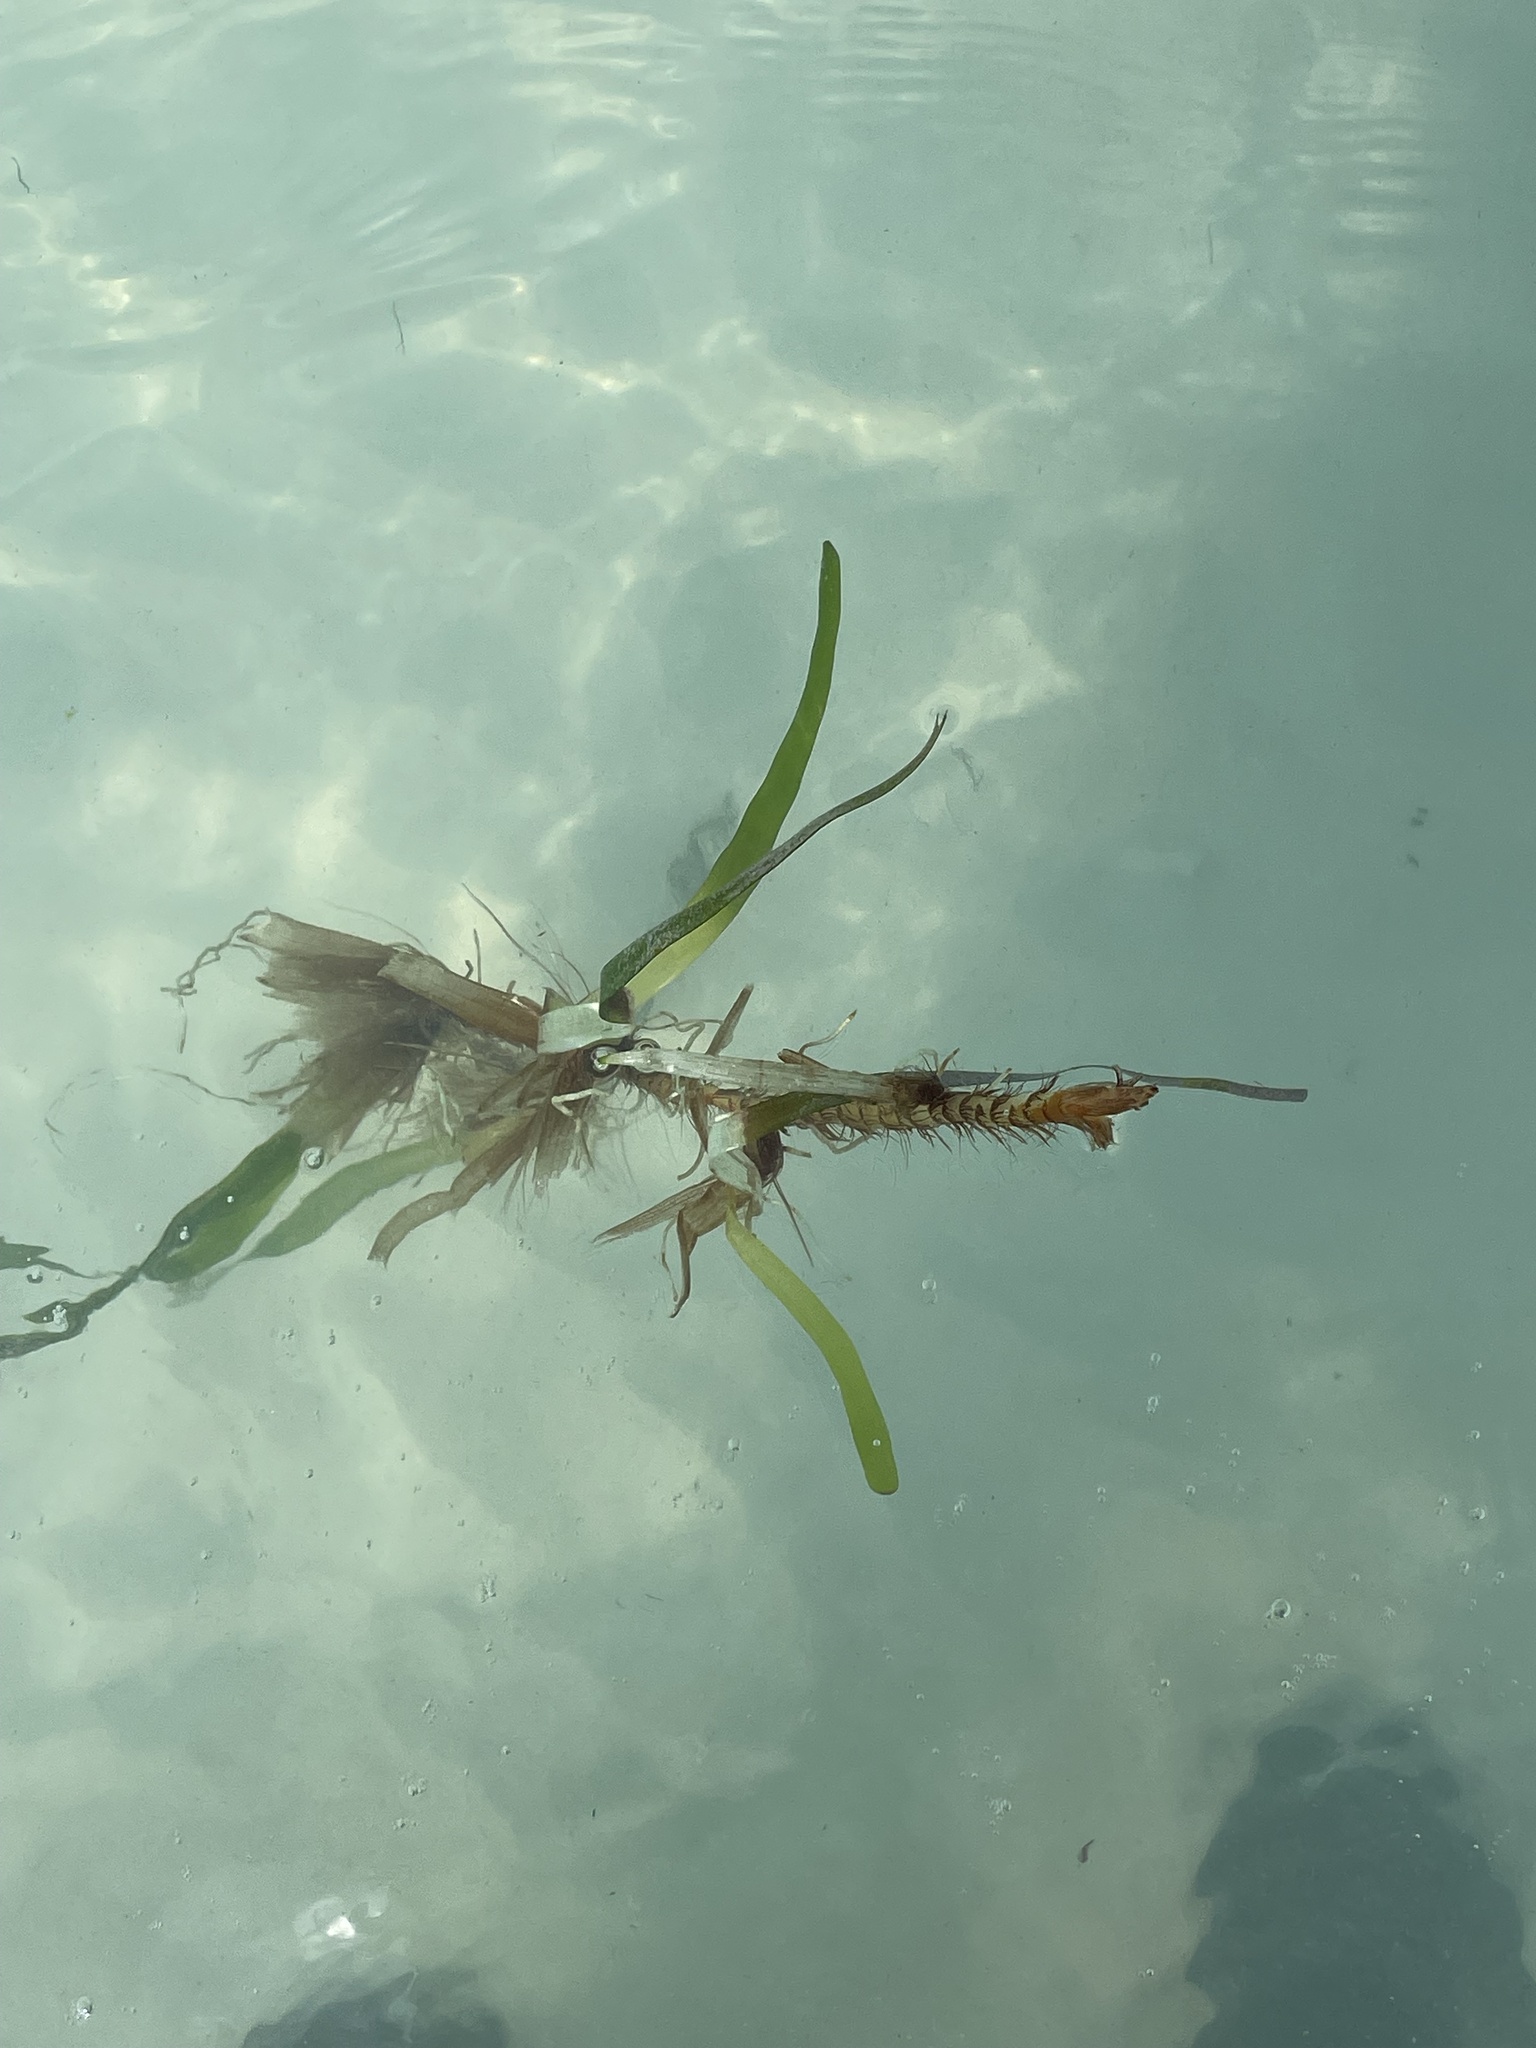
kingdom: Plantae
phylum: Tracheophyta
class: Liliopsida
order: Alismatales
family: Hydrocharitaceae
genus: Thalassia
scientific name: Thalassia testudinum
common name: Species code: tt
